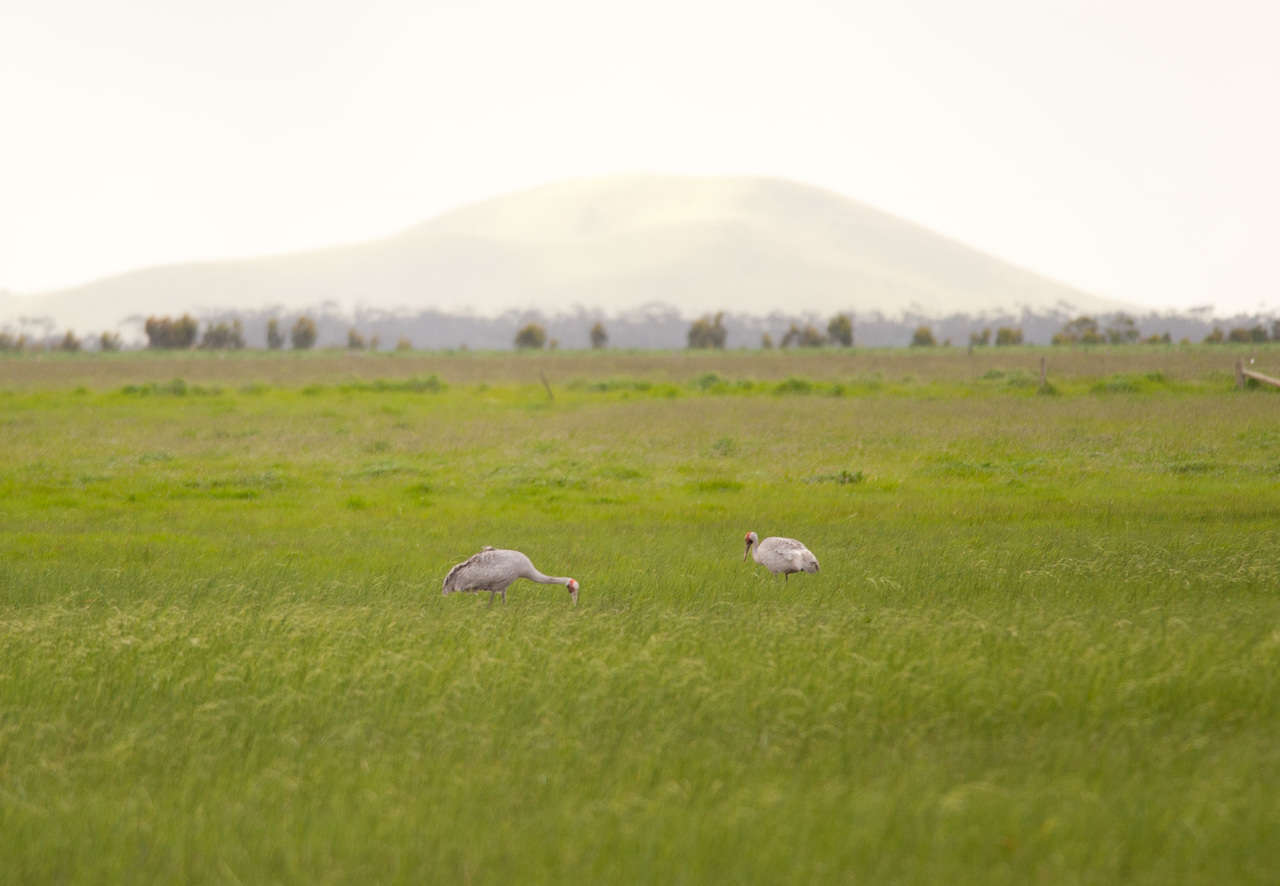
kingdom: Animalia
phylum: Chordata
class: Aves
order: Gruiformes
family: Gruidae
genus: Grus
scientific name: Grus rubicunda
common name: Brolga
